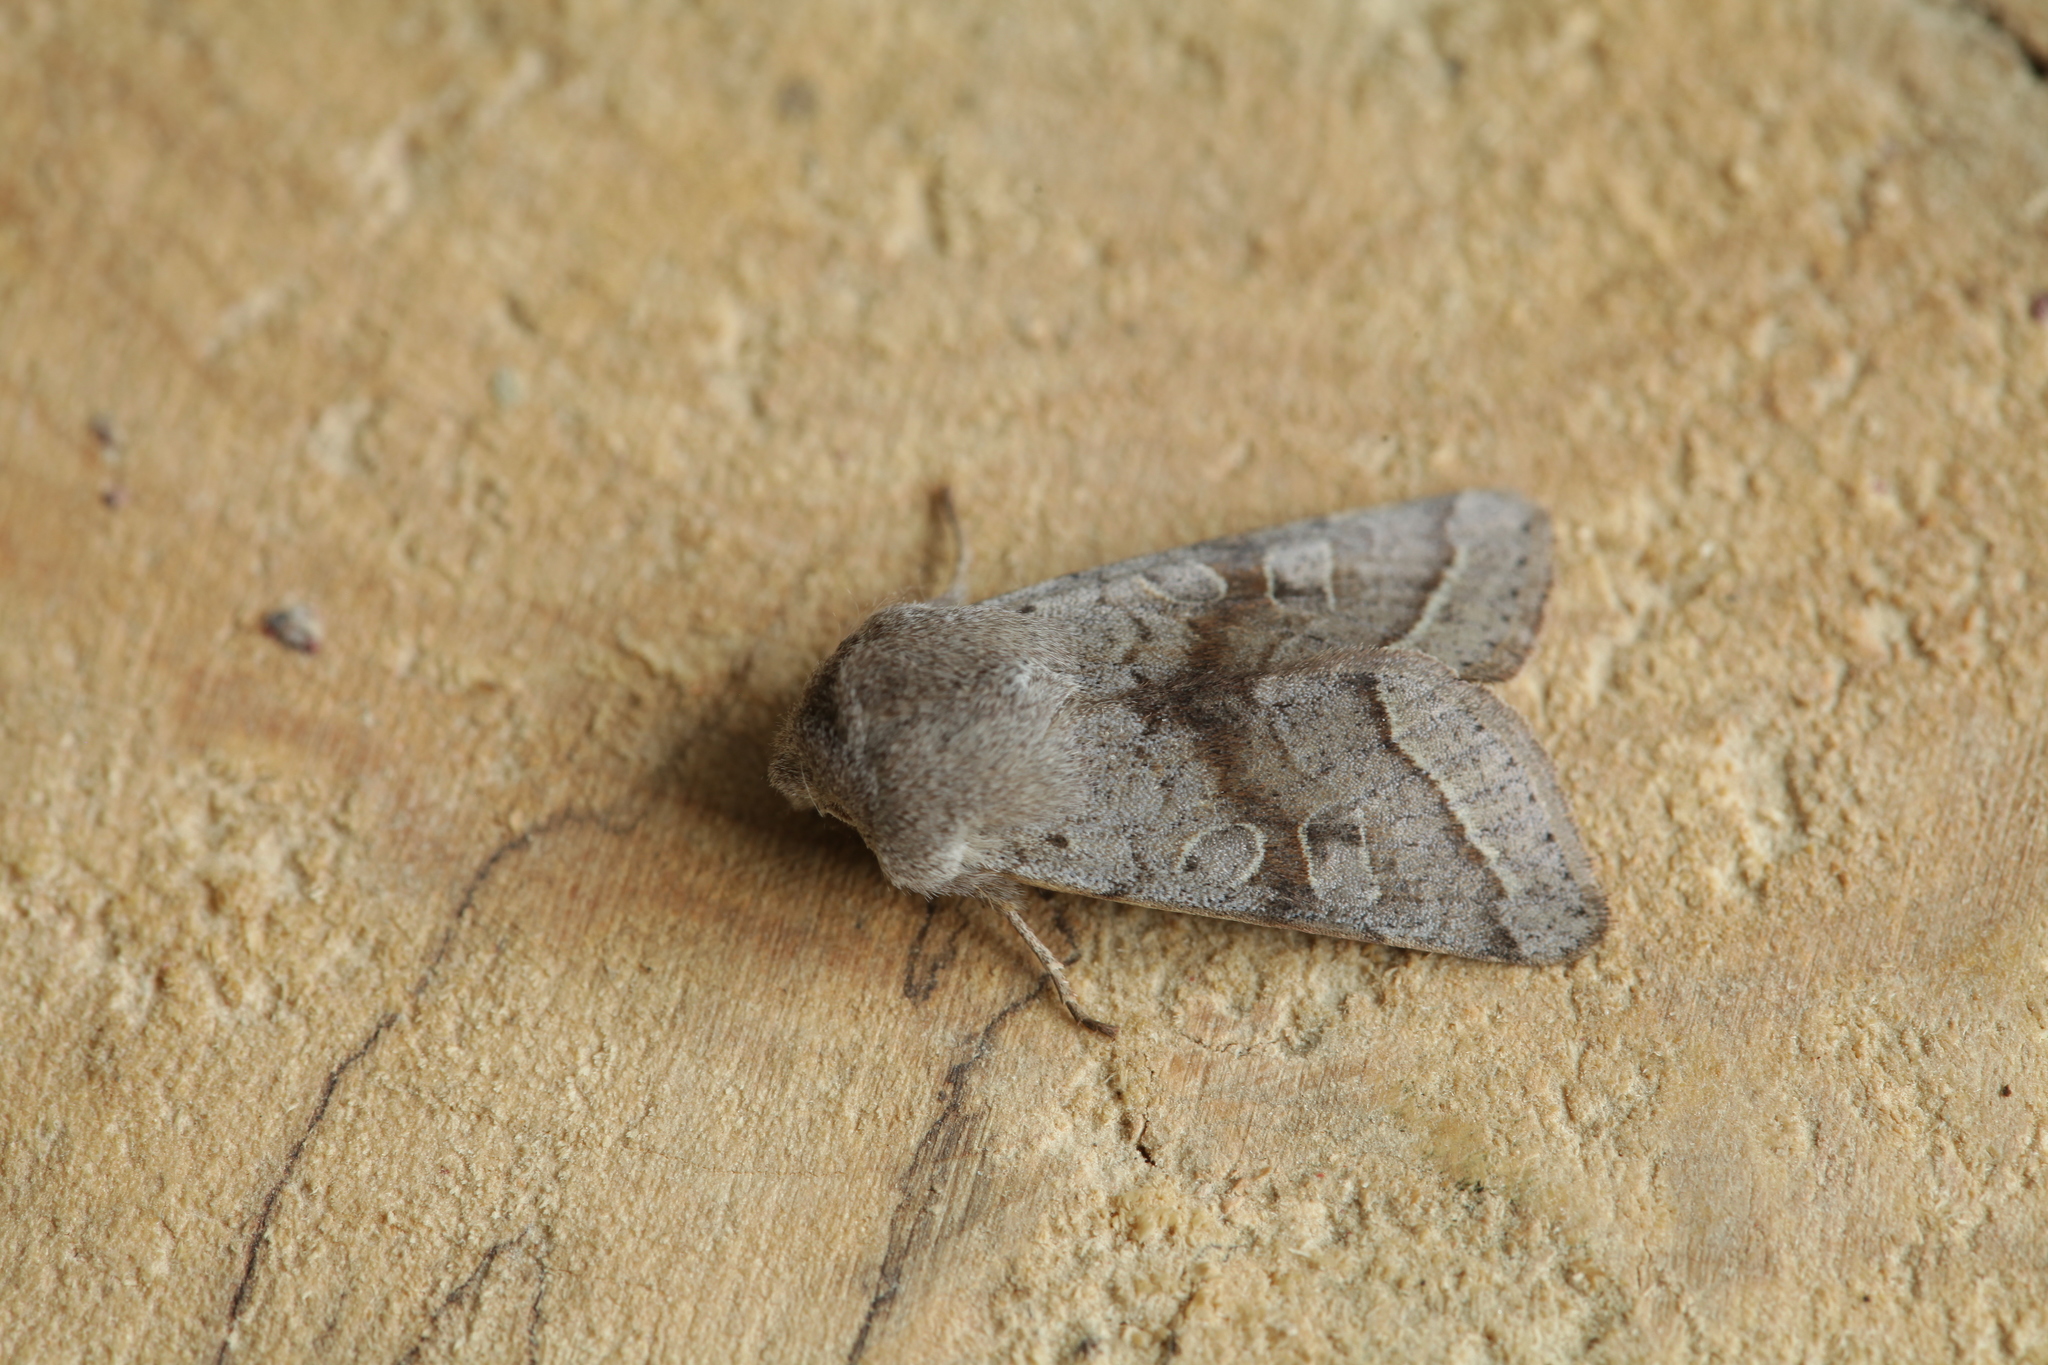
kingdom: Animalia
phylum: Arthropoda
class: Insecta
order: Lepidoptera
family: Noctuidae
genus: Orthosia
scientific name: Orthosia opima
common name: Northern drab
